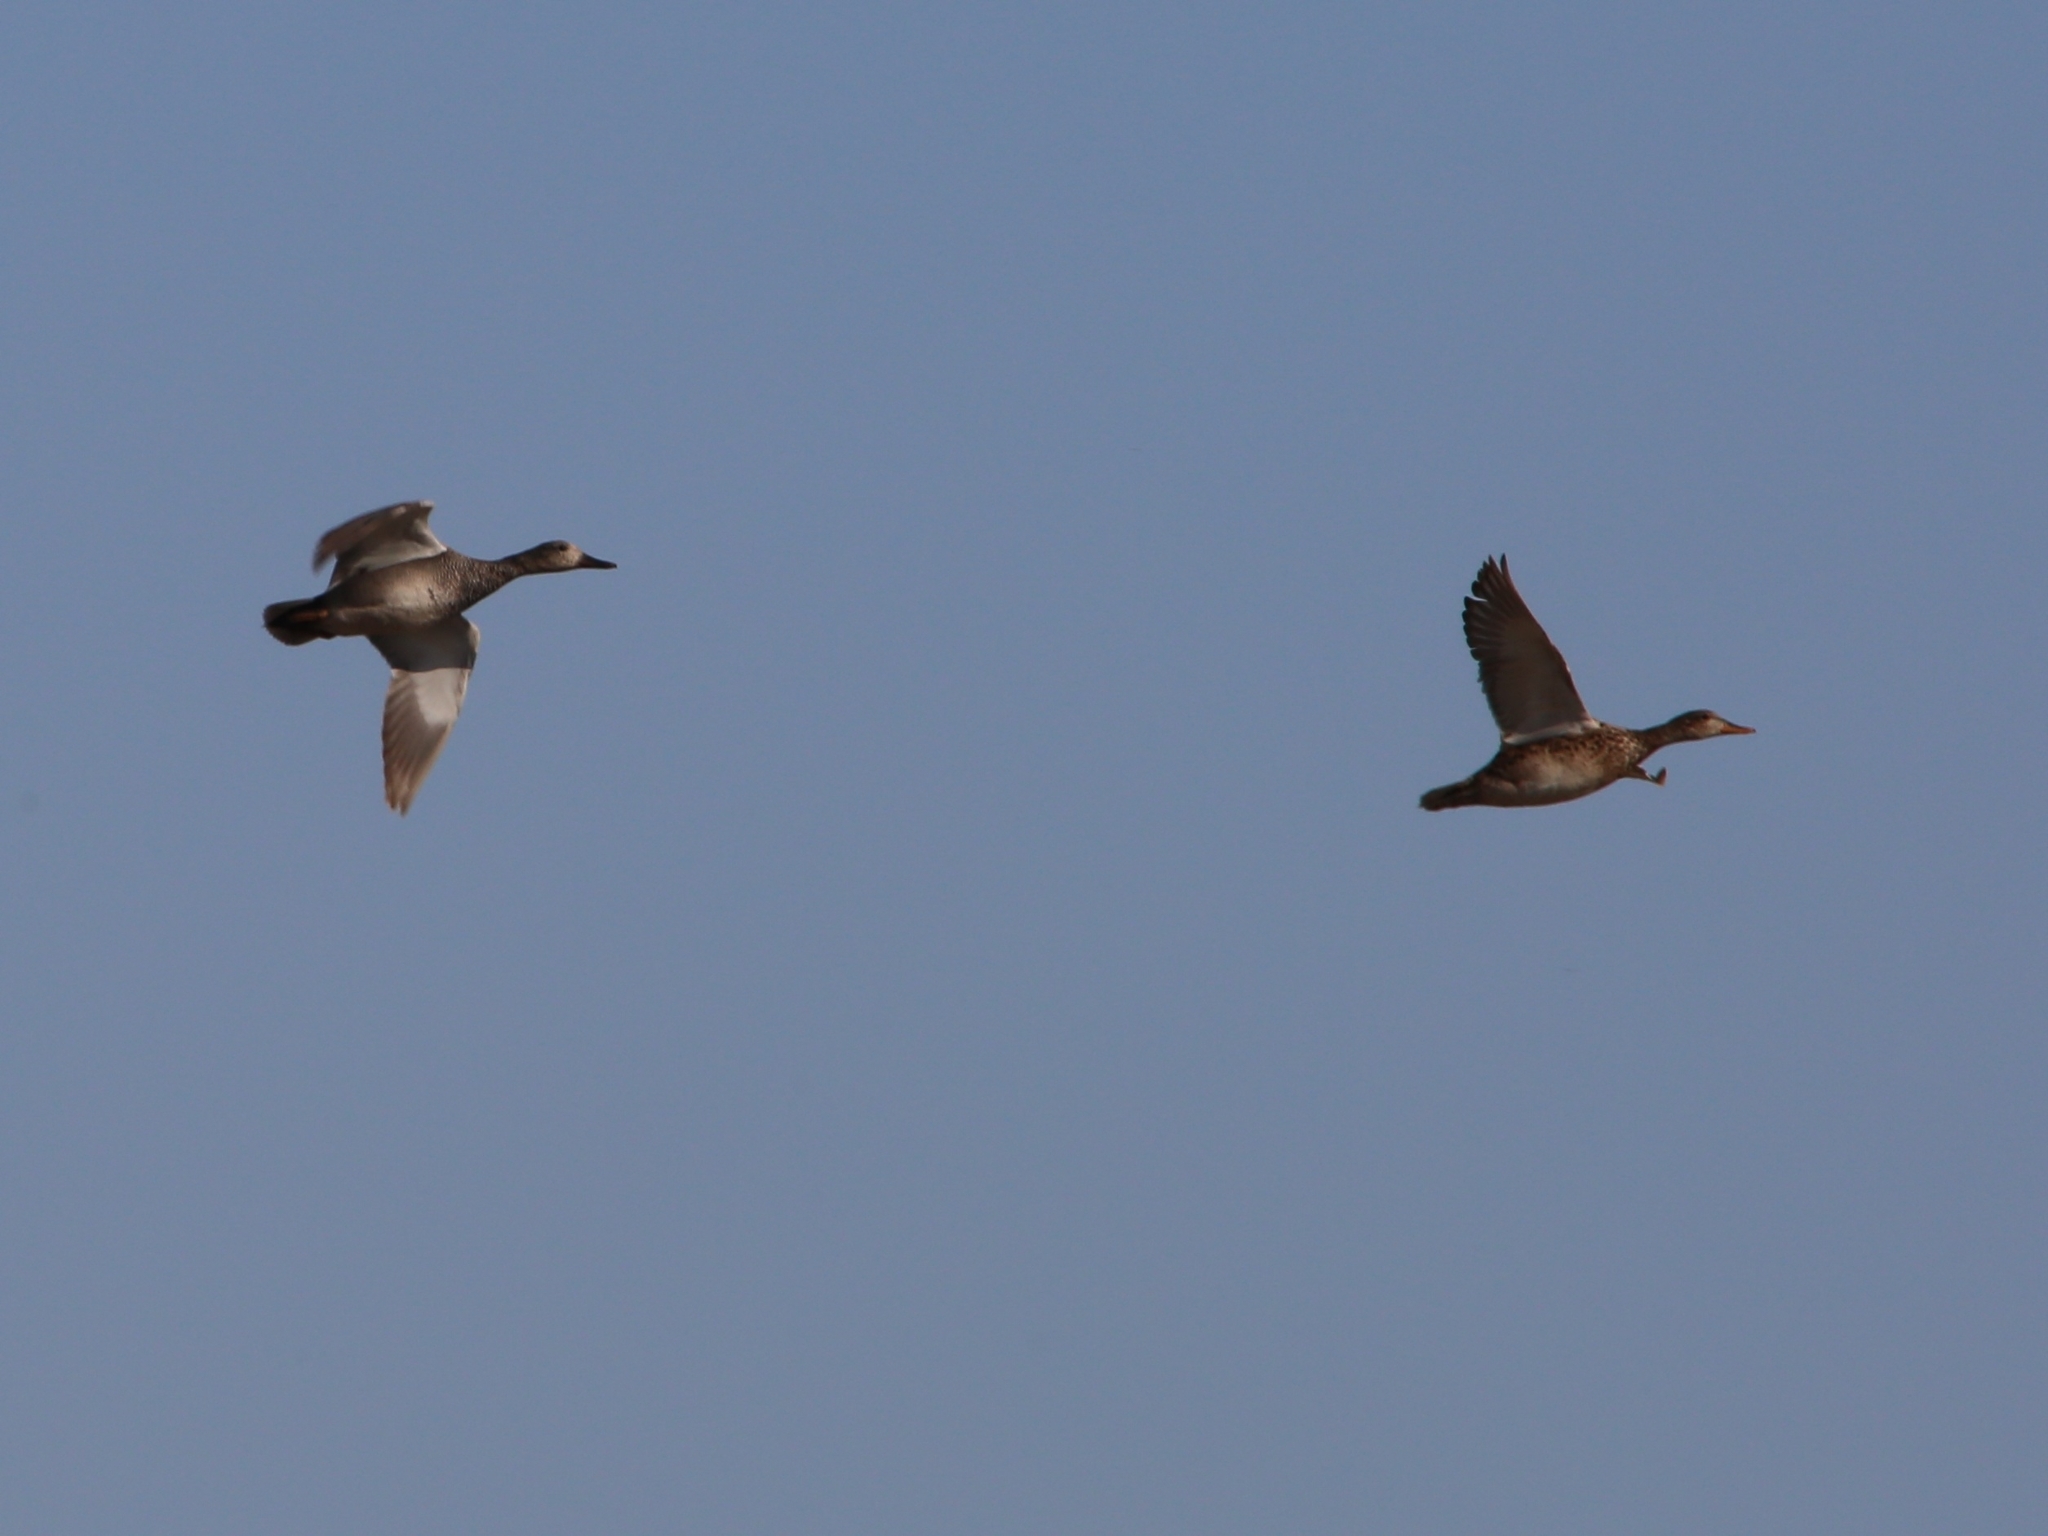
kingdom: Animalia
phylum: Chordata
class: Aves
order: Anseriformes
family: Anatidae
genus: Mareca
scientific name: Mareca strepera
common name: Gadwall
